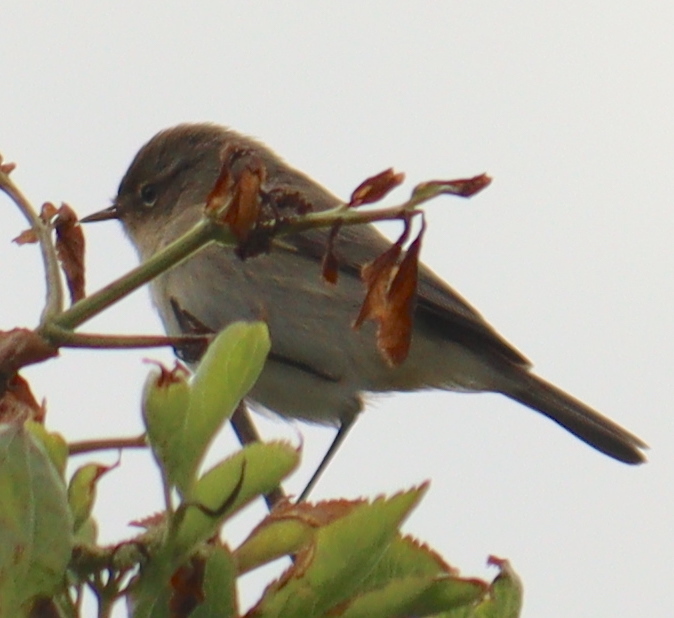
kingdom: Animalia
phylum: Chordata
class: Aves
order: Passeriformes
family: Phylloscopidae
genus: Phylloscopus
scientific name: Phylloscopus collybita
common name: Common chiffchaff
